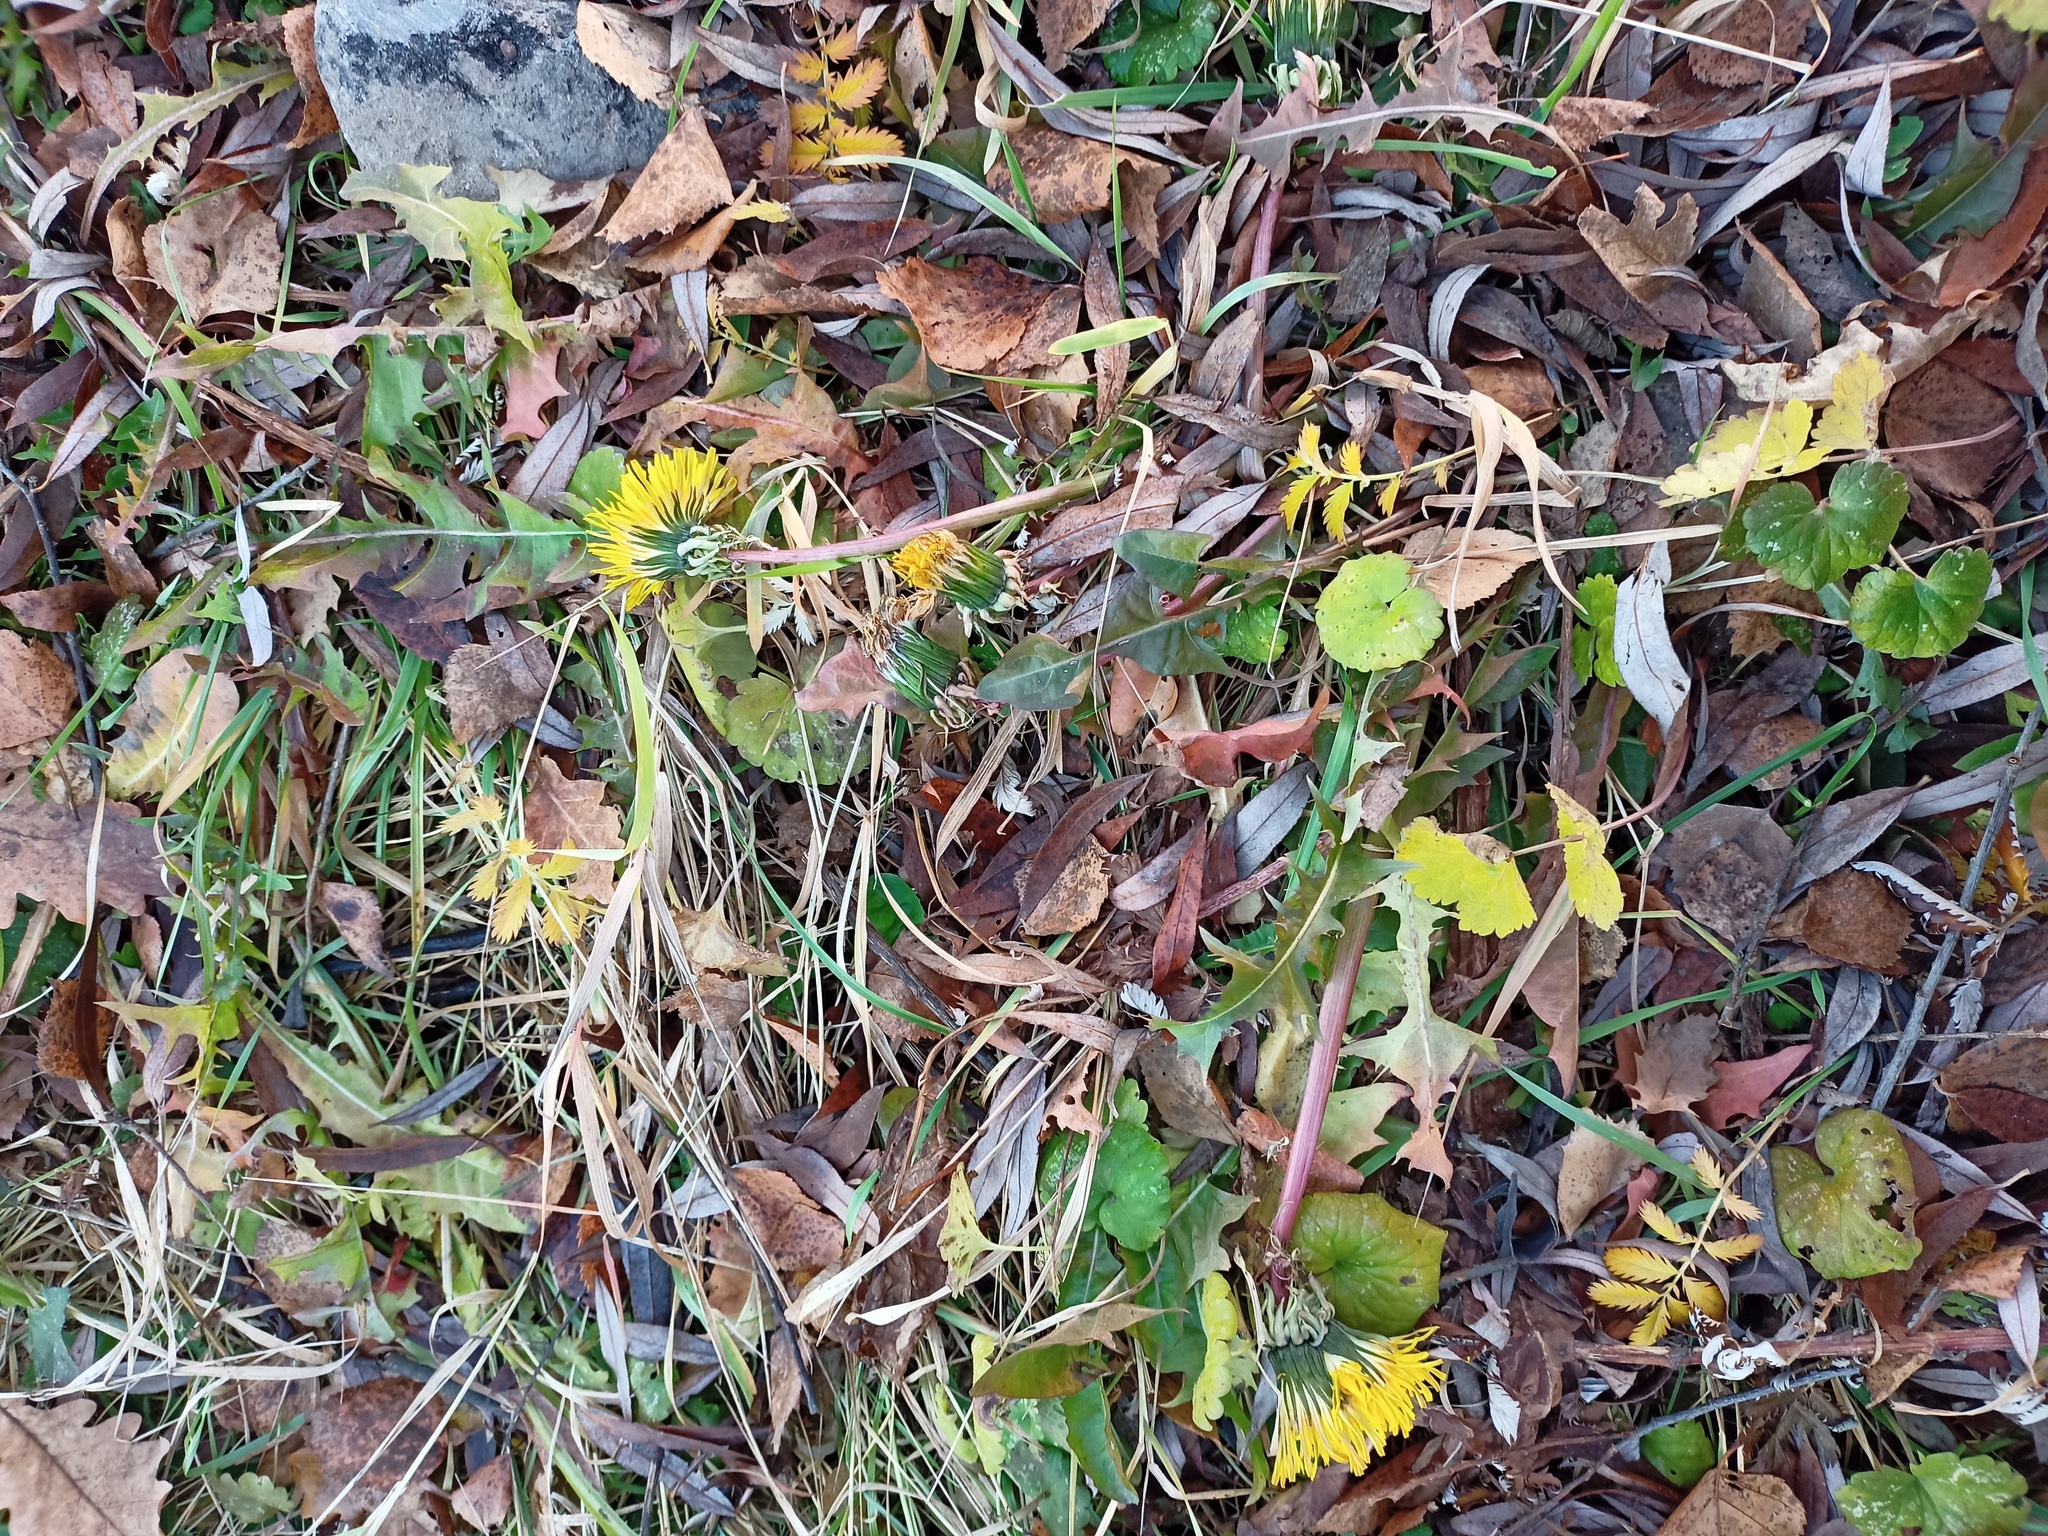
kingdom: Plantae
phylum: Tracheophyta
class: Magnoliopsida
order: Asterales
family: Asteraceae
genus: Taraxacum
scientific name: Taraxacum officinale
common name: Common dandelion
